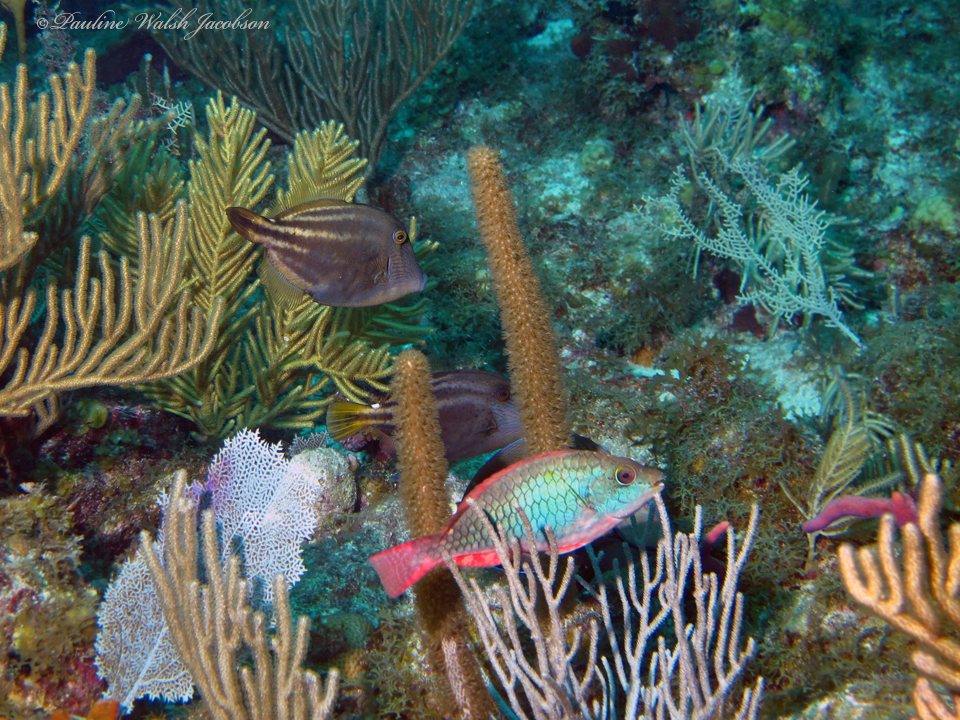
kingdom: Animalia
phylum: Chordata
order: Perciformes
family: Scaridae
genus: Sparisoma
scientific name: Sparisoma aurofrenatum
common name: Redband parrotfish
